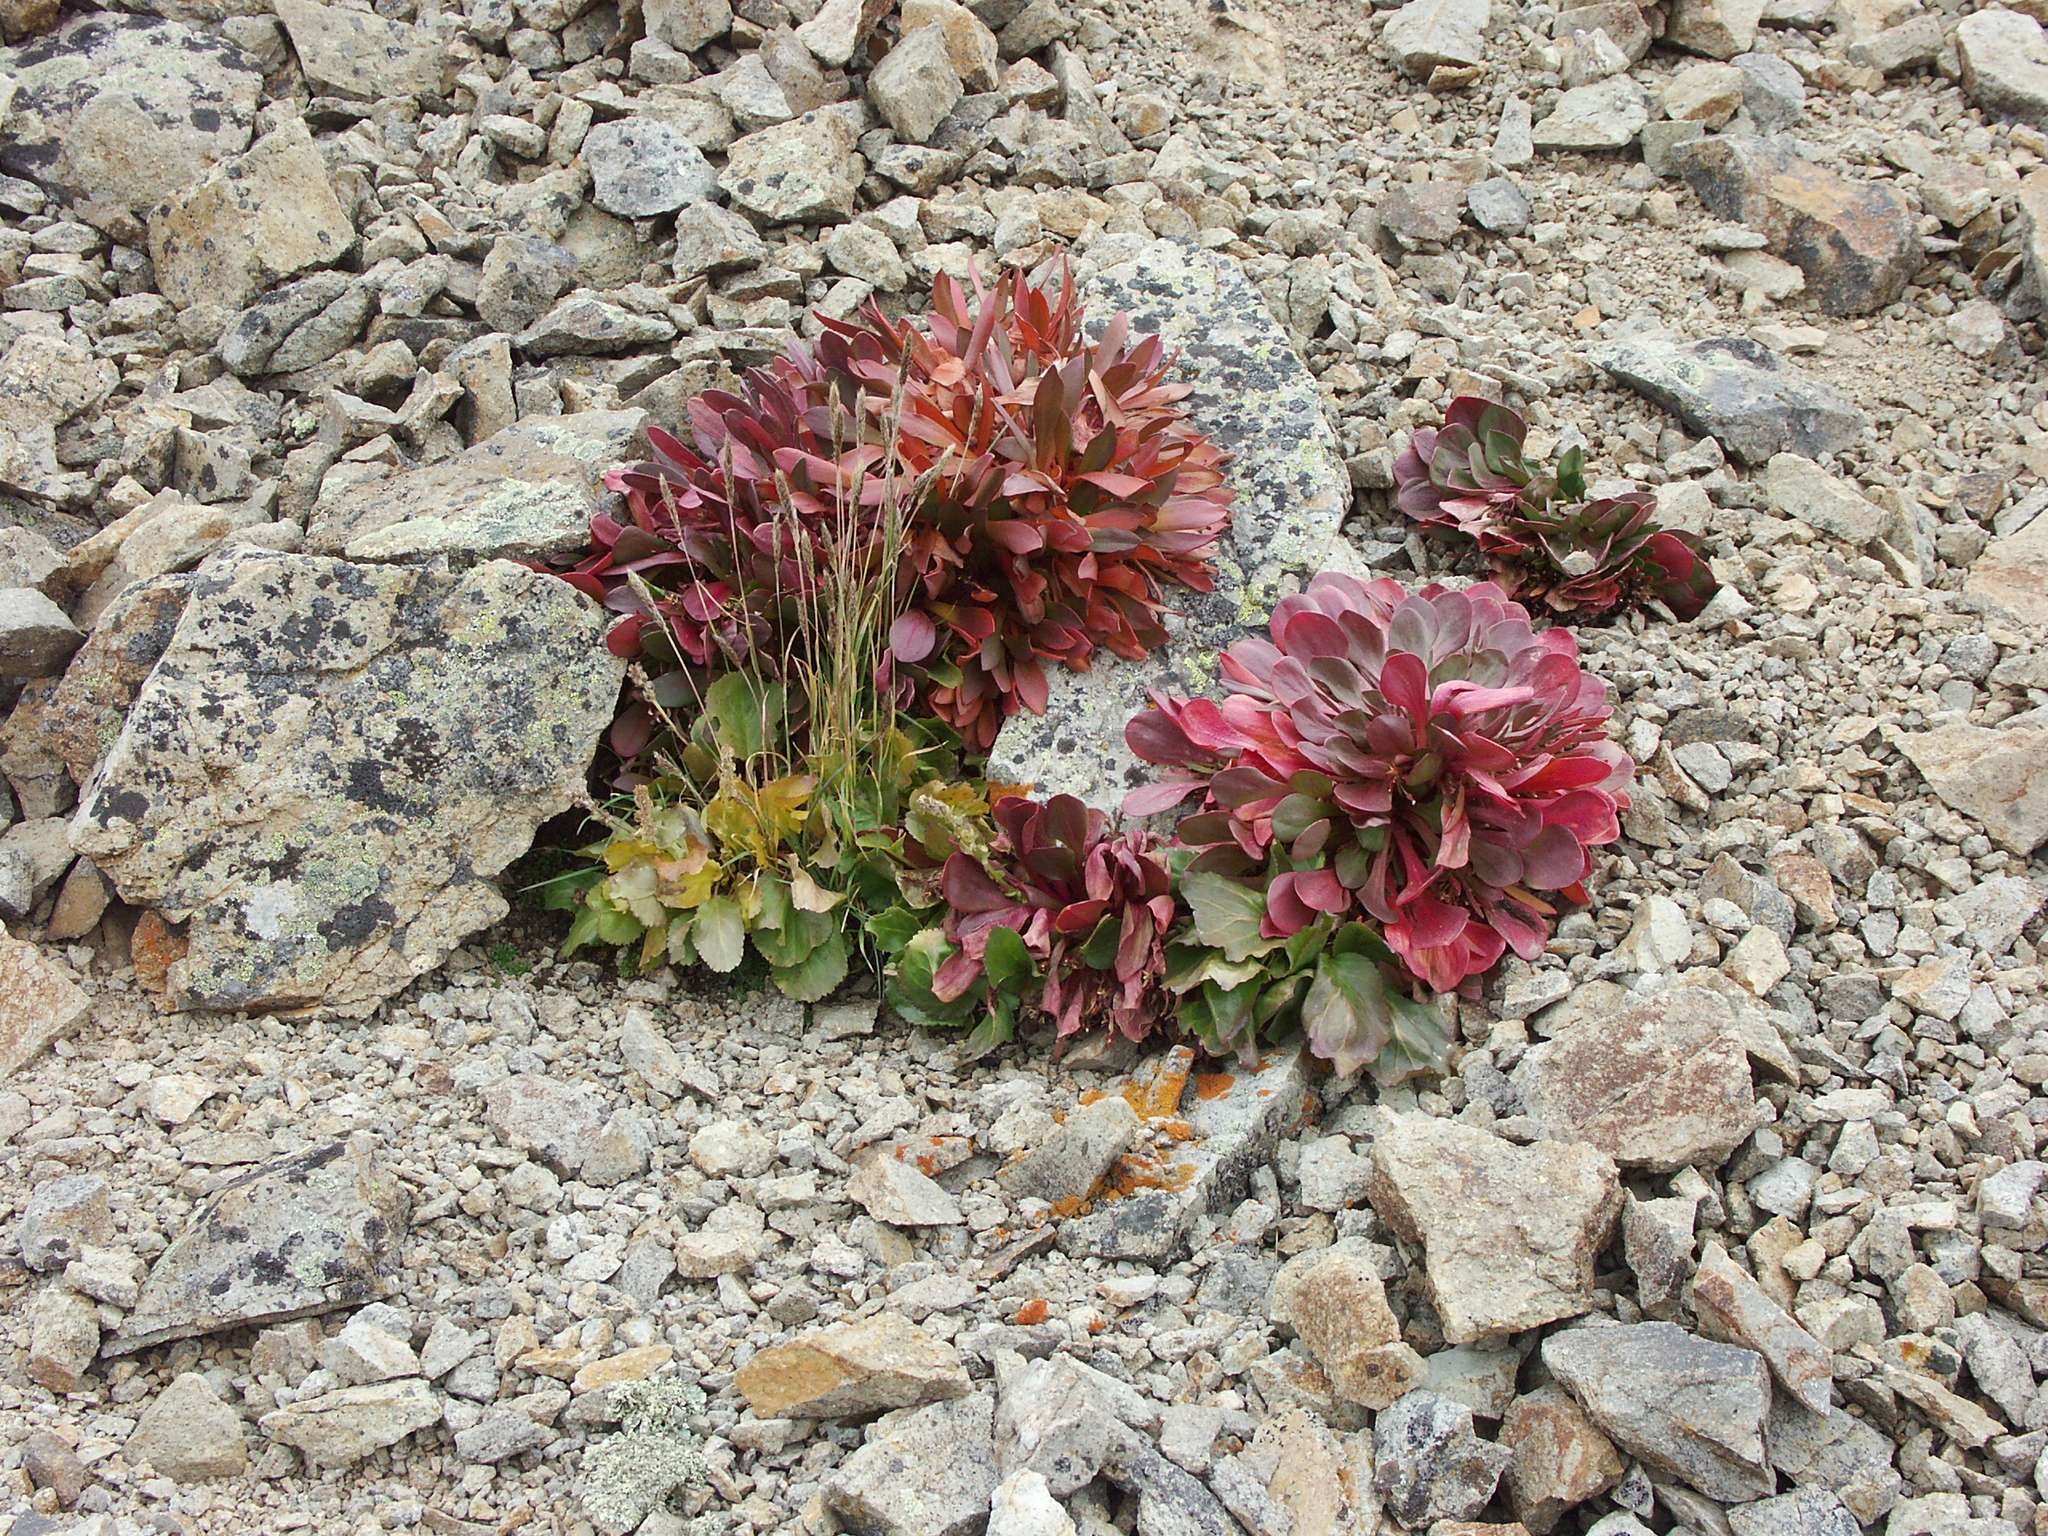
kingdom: Plantae
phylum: Tracheophyta
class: Magnoliopsida
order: Caryophyllales
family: Montiaceae
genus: Claytonia
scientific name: Claytonia megarhiza
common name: Alpine spring beauty
